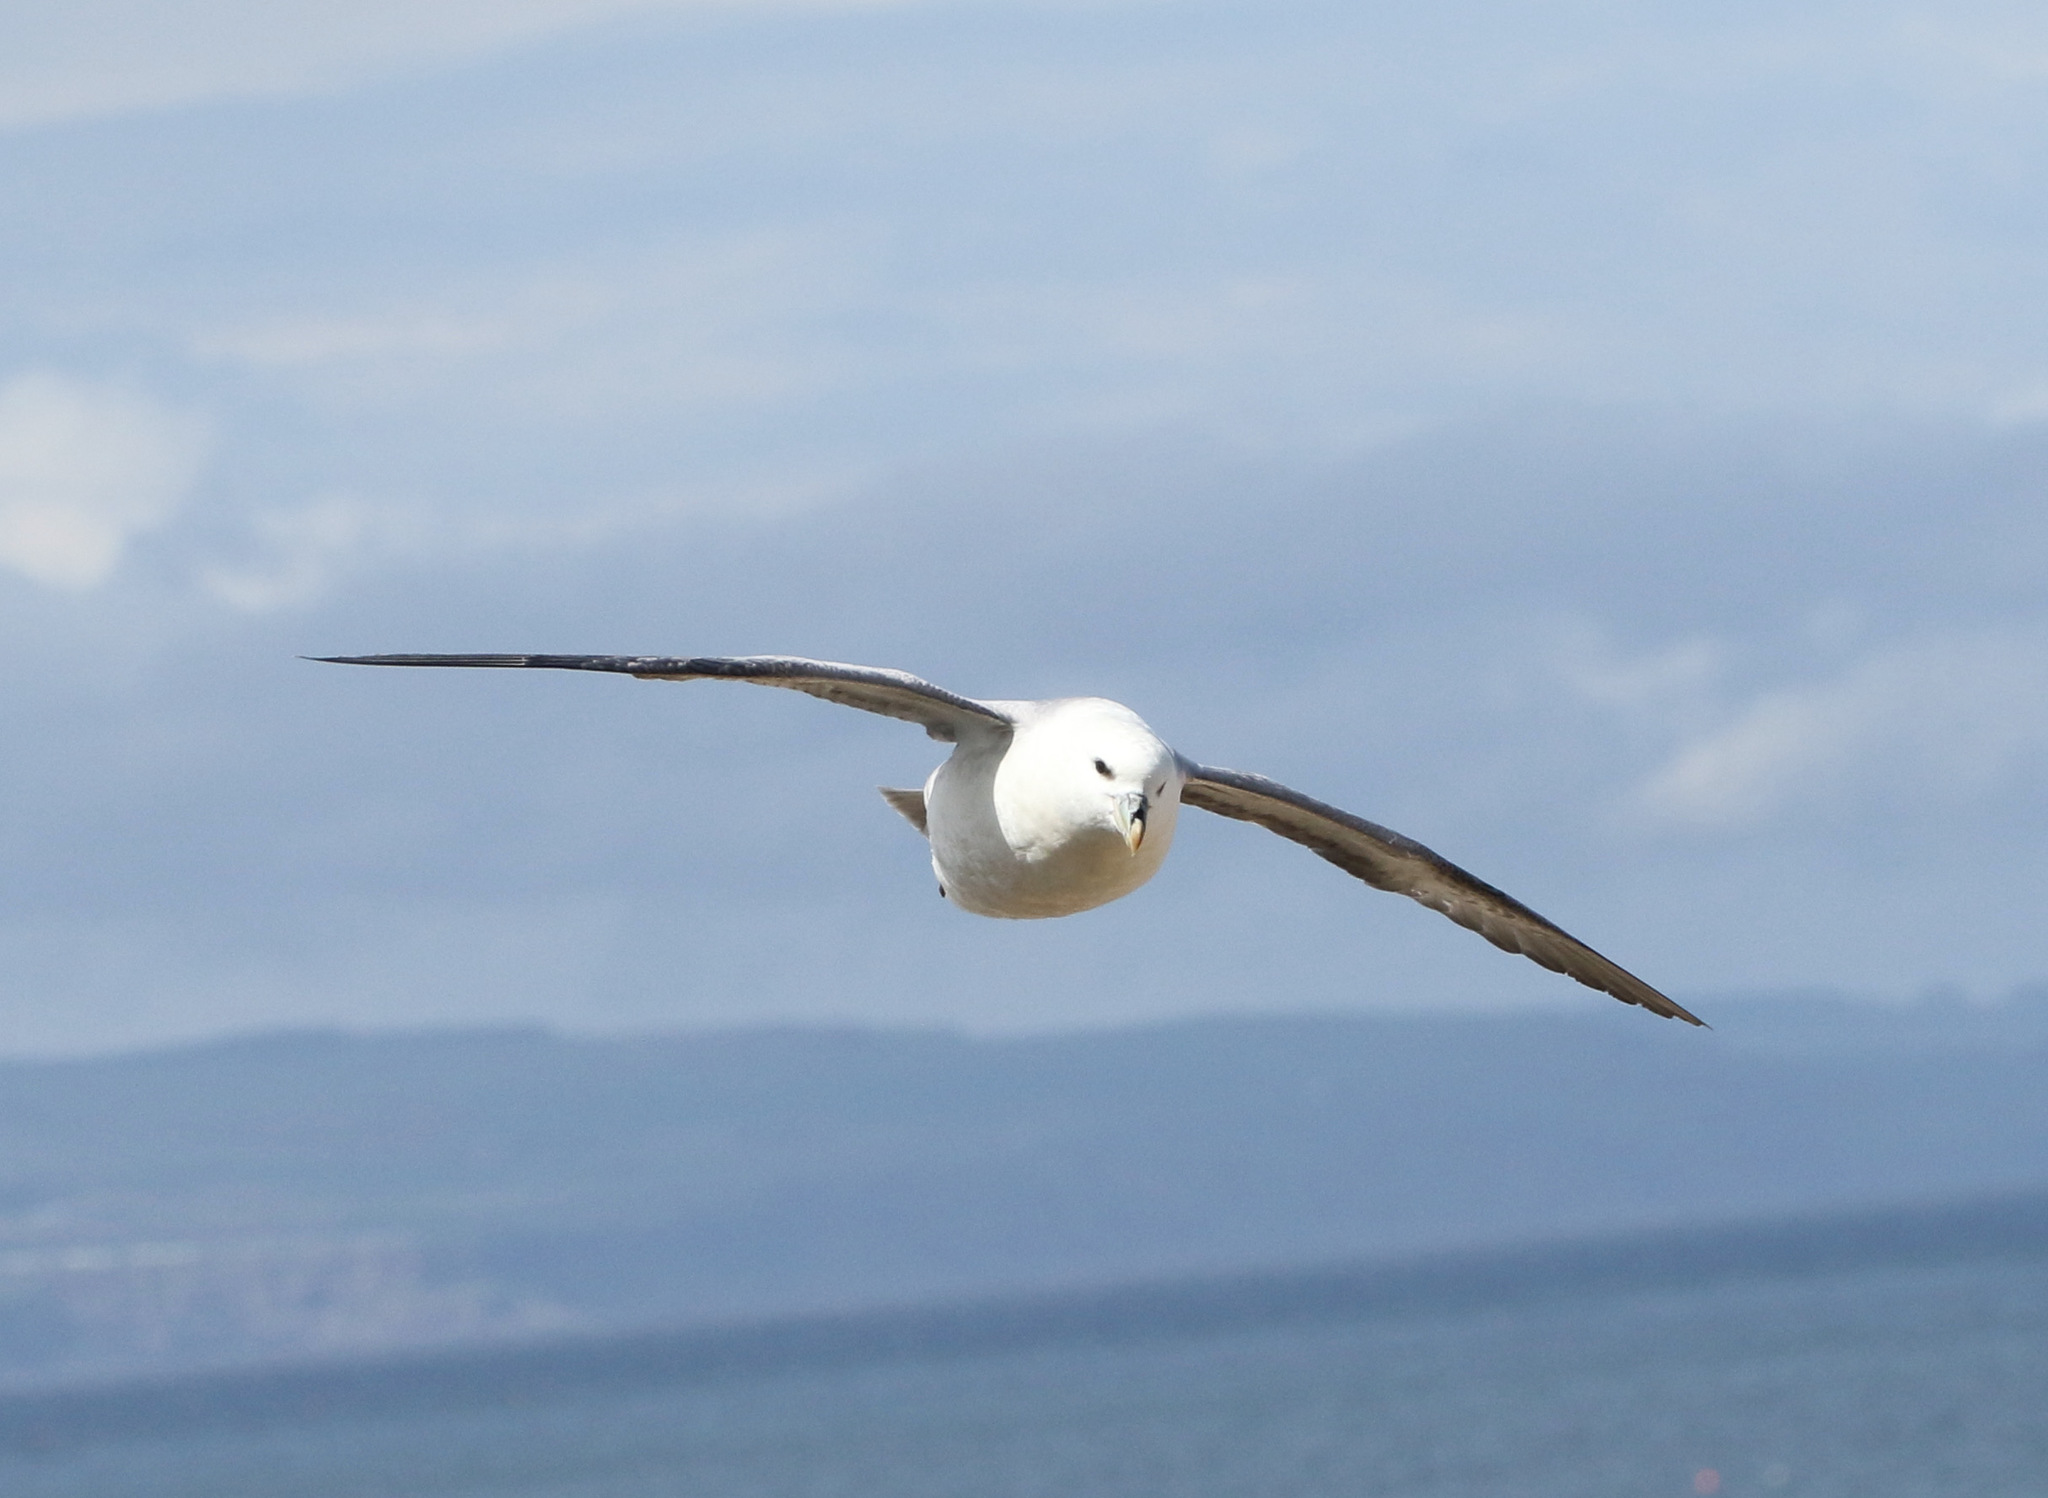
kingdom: Animalia
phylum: Chordata
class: Aves
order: Procellariiformes
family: Procellariidae
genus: Fulmarus
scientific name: Fulmarus glacialis
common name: Northern fulmar
